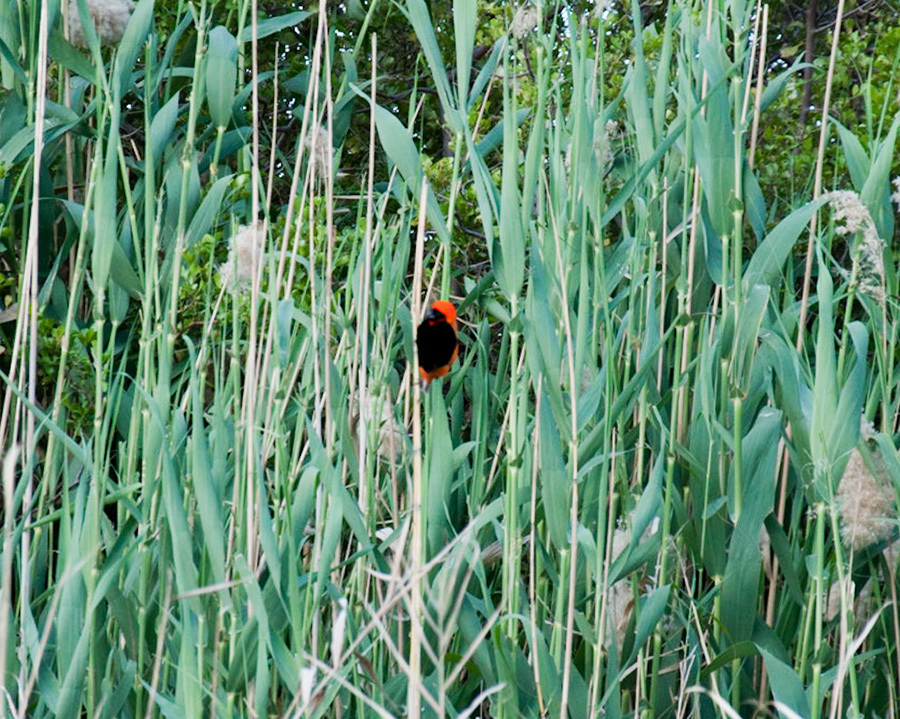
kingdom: Animalia
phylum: Chordata
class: Aves
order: Passeriformes
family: Ploceidae
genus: Euplectes
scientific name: Euplectes orix
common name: Southern red bishop
